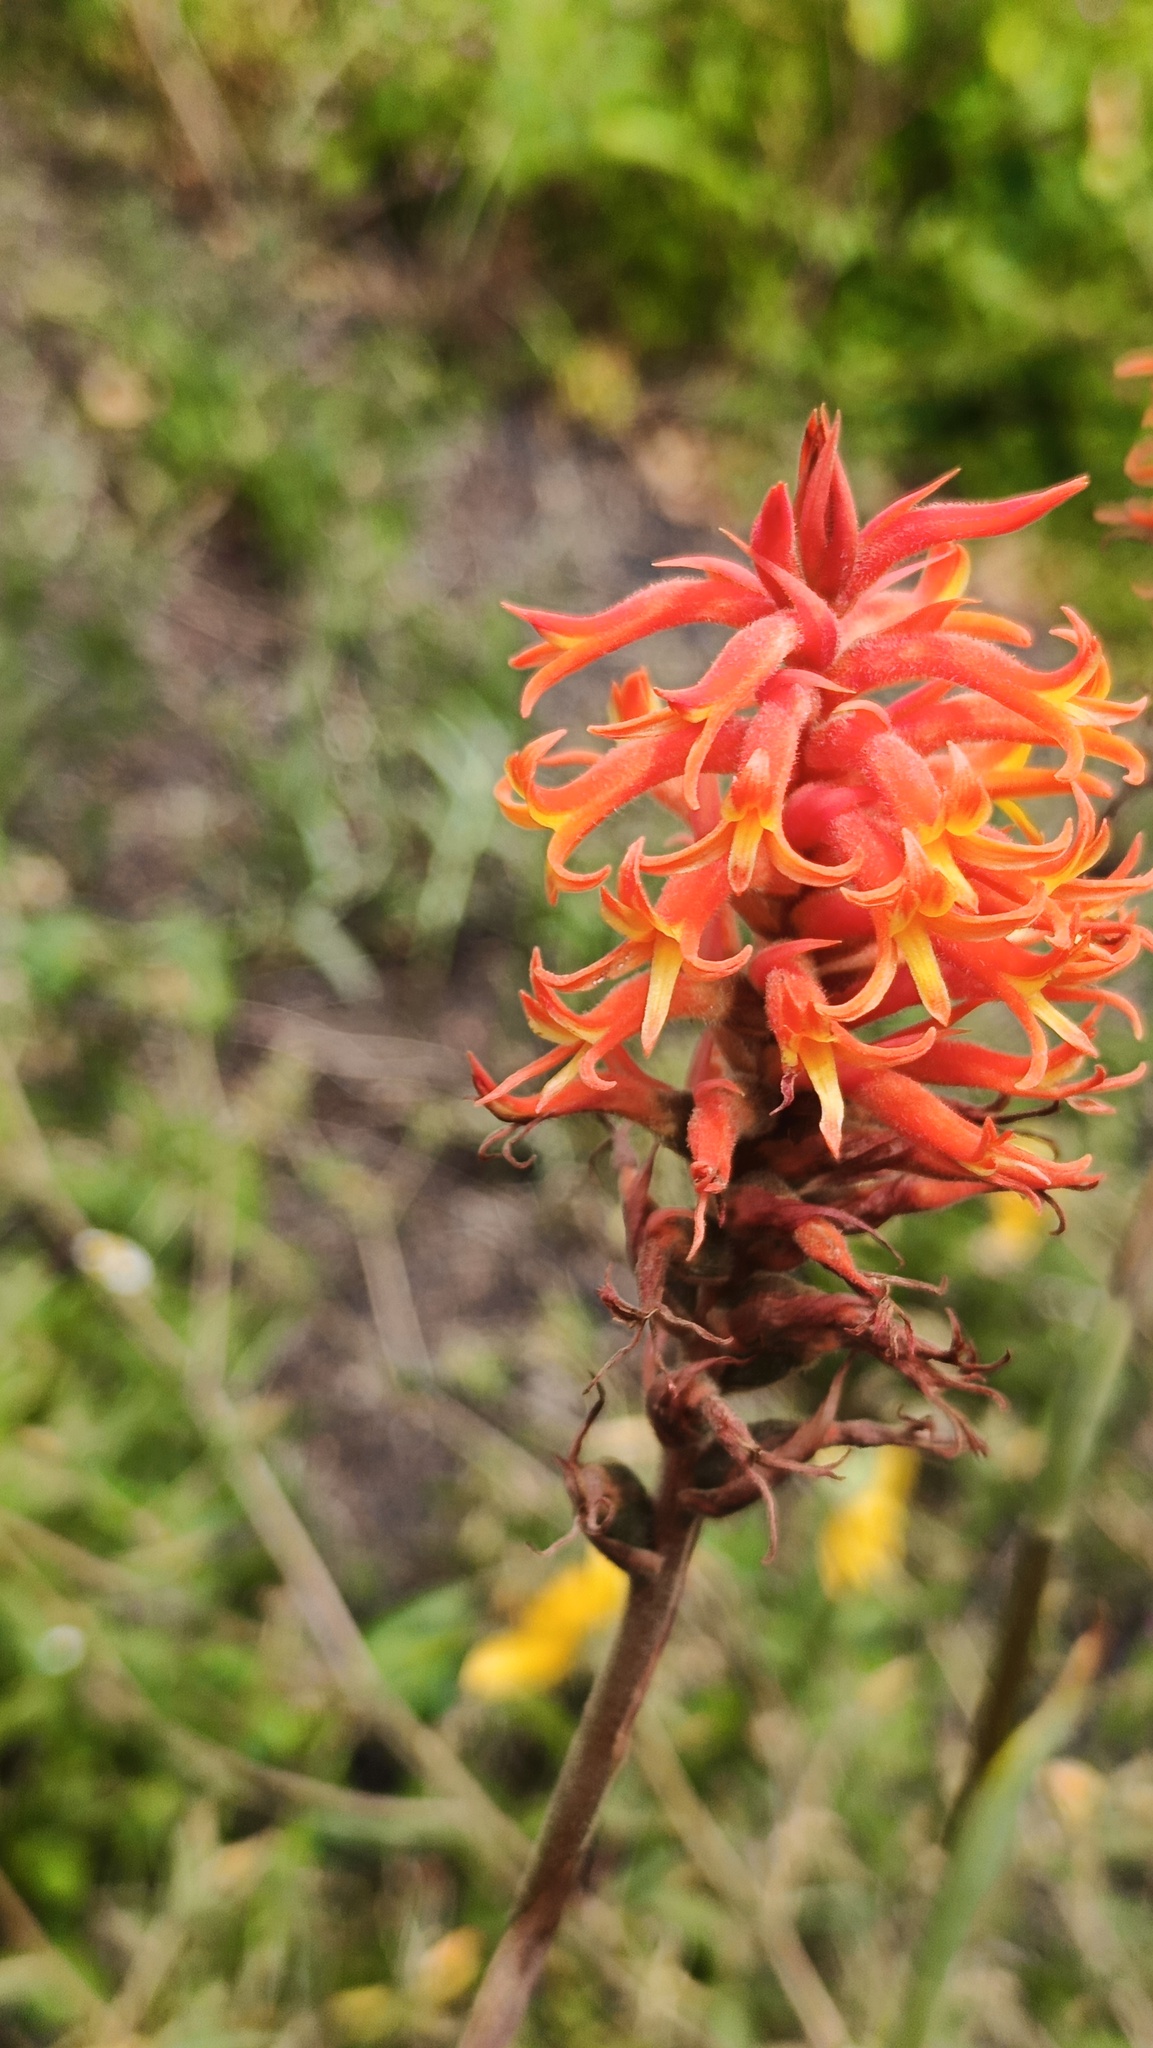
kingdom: Plantae
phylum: Tracheophyta
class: Liliopsida
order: Asparagales
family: Orchidaceae
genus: Dichromanthus
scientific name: Dichromanthus cinnabarinus
